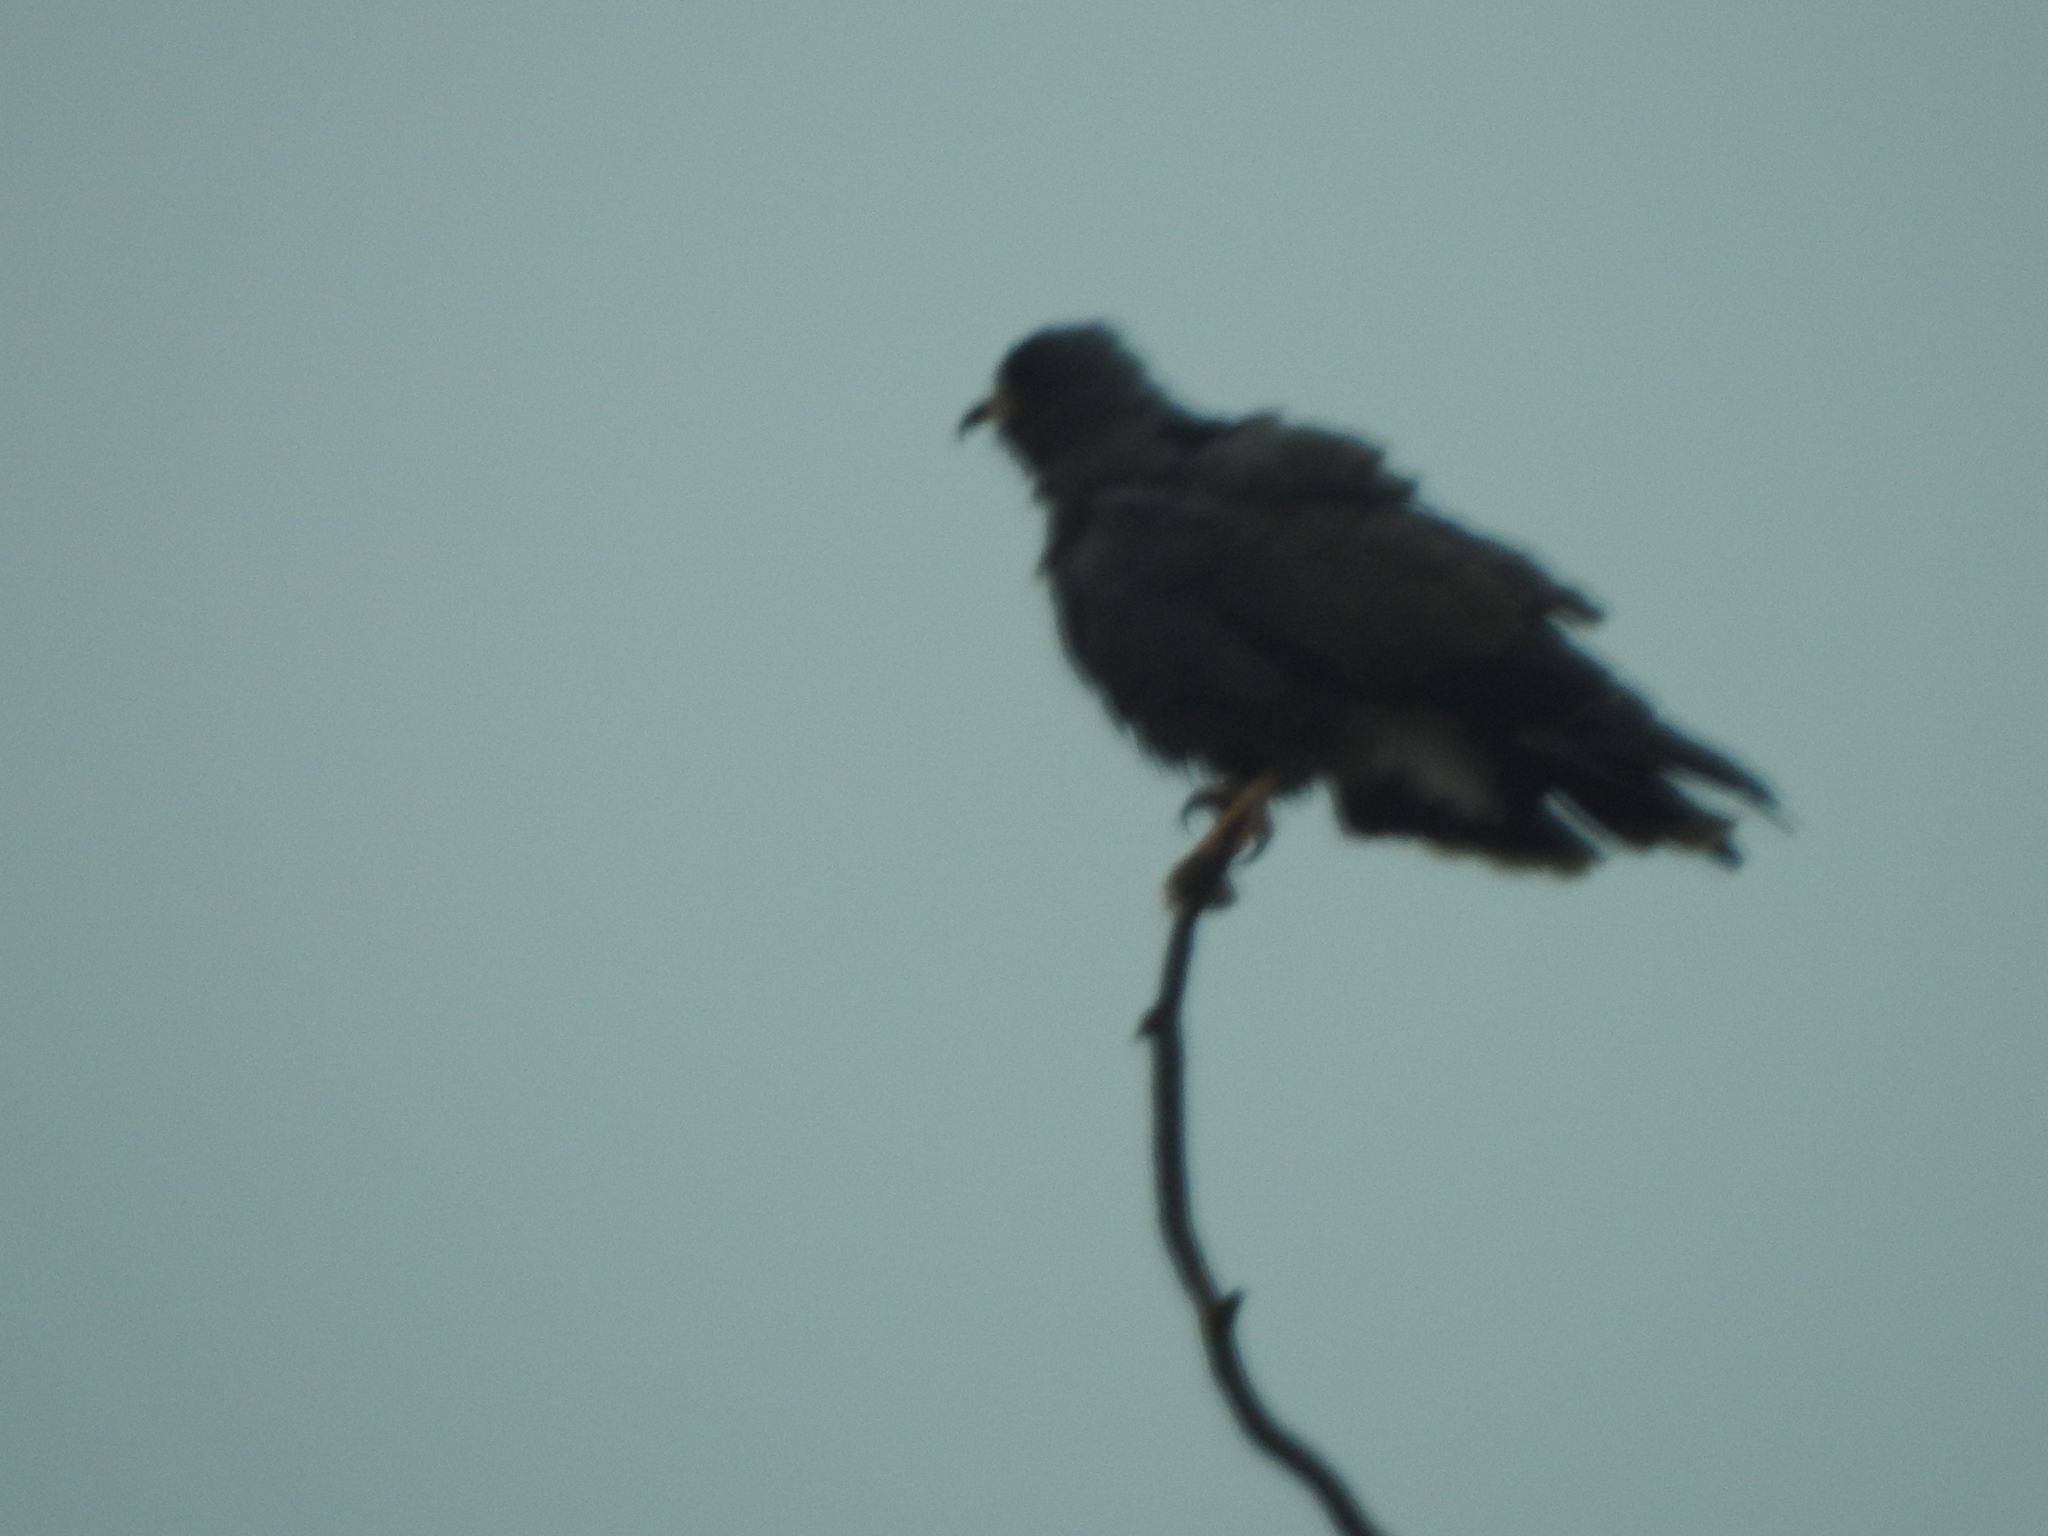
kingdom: Animalia
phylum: Chordata
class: Aves
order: Accipitriformes
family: Accipitridae
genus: Rostrhamus
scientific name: Rostrhamus sociabilis
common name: Snail kite
